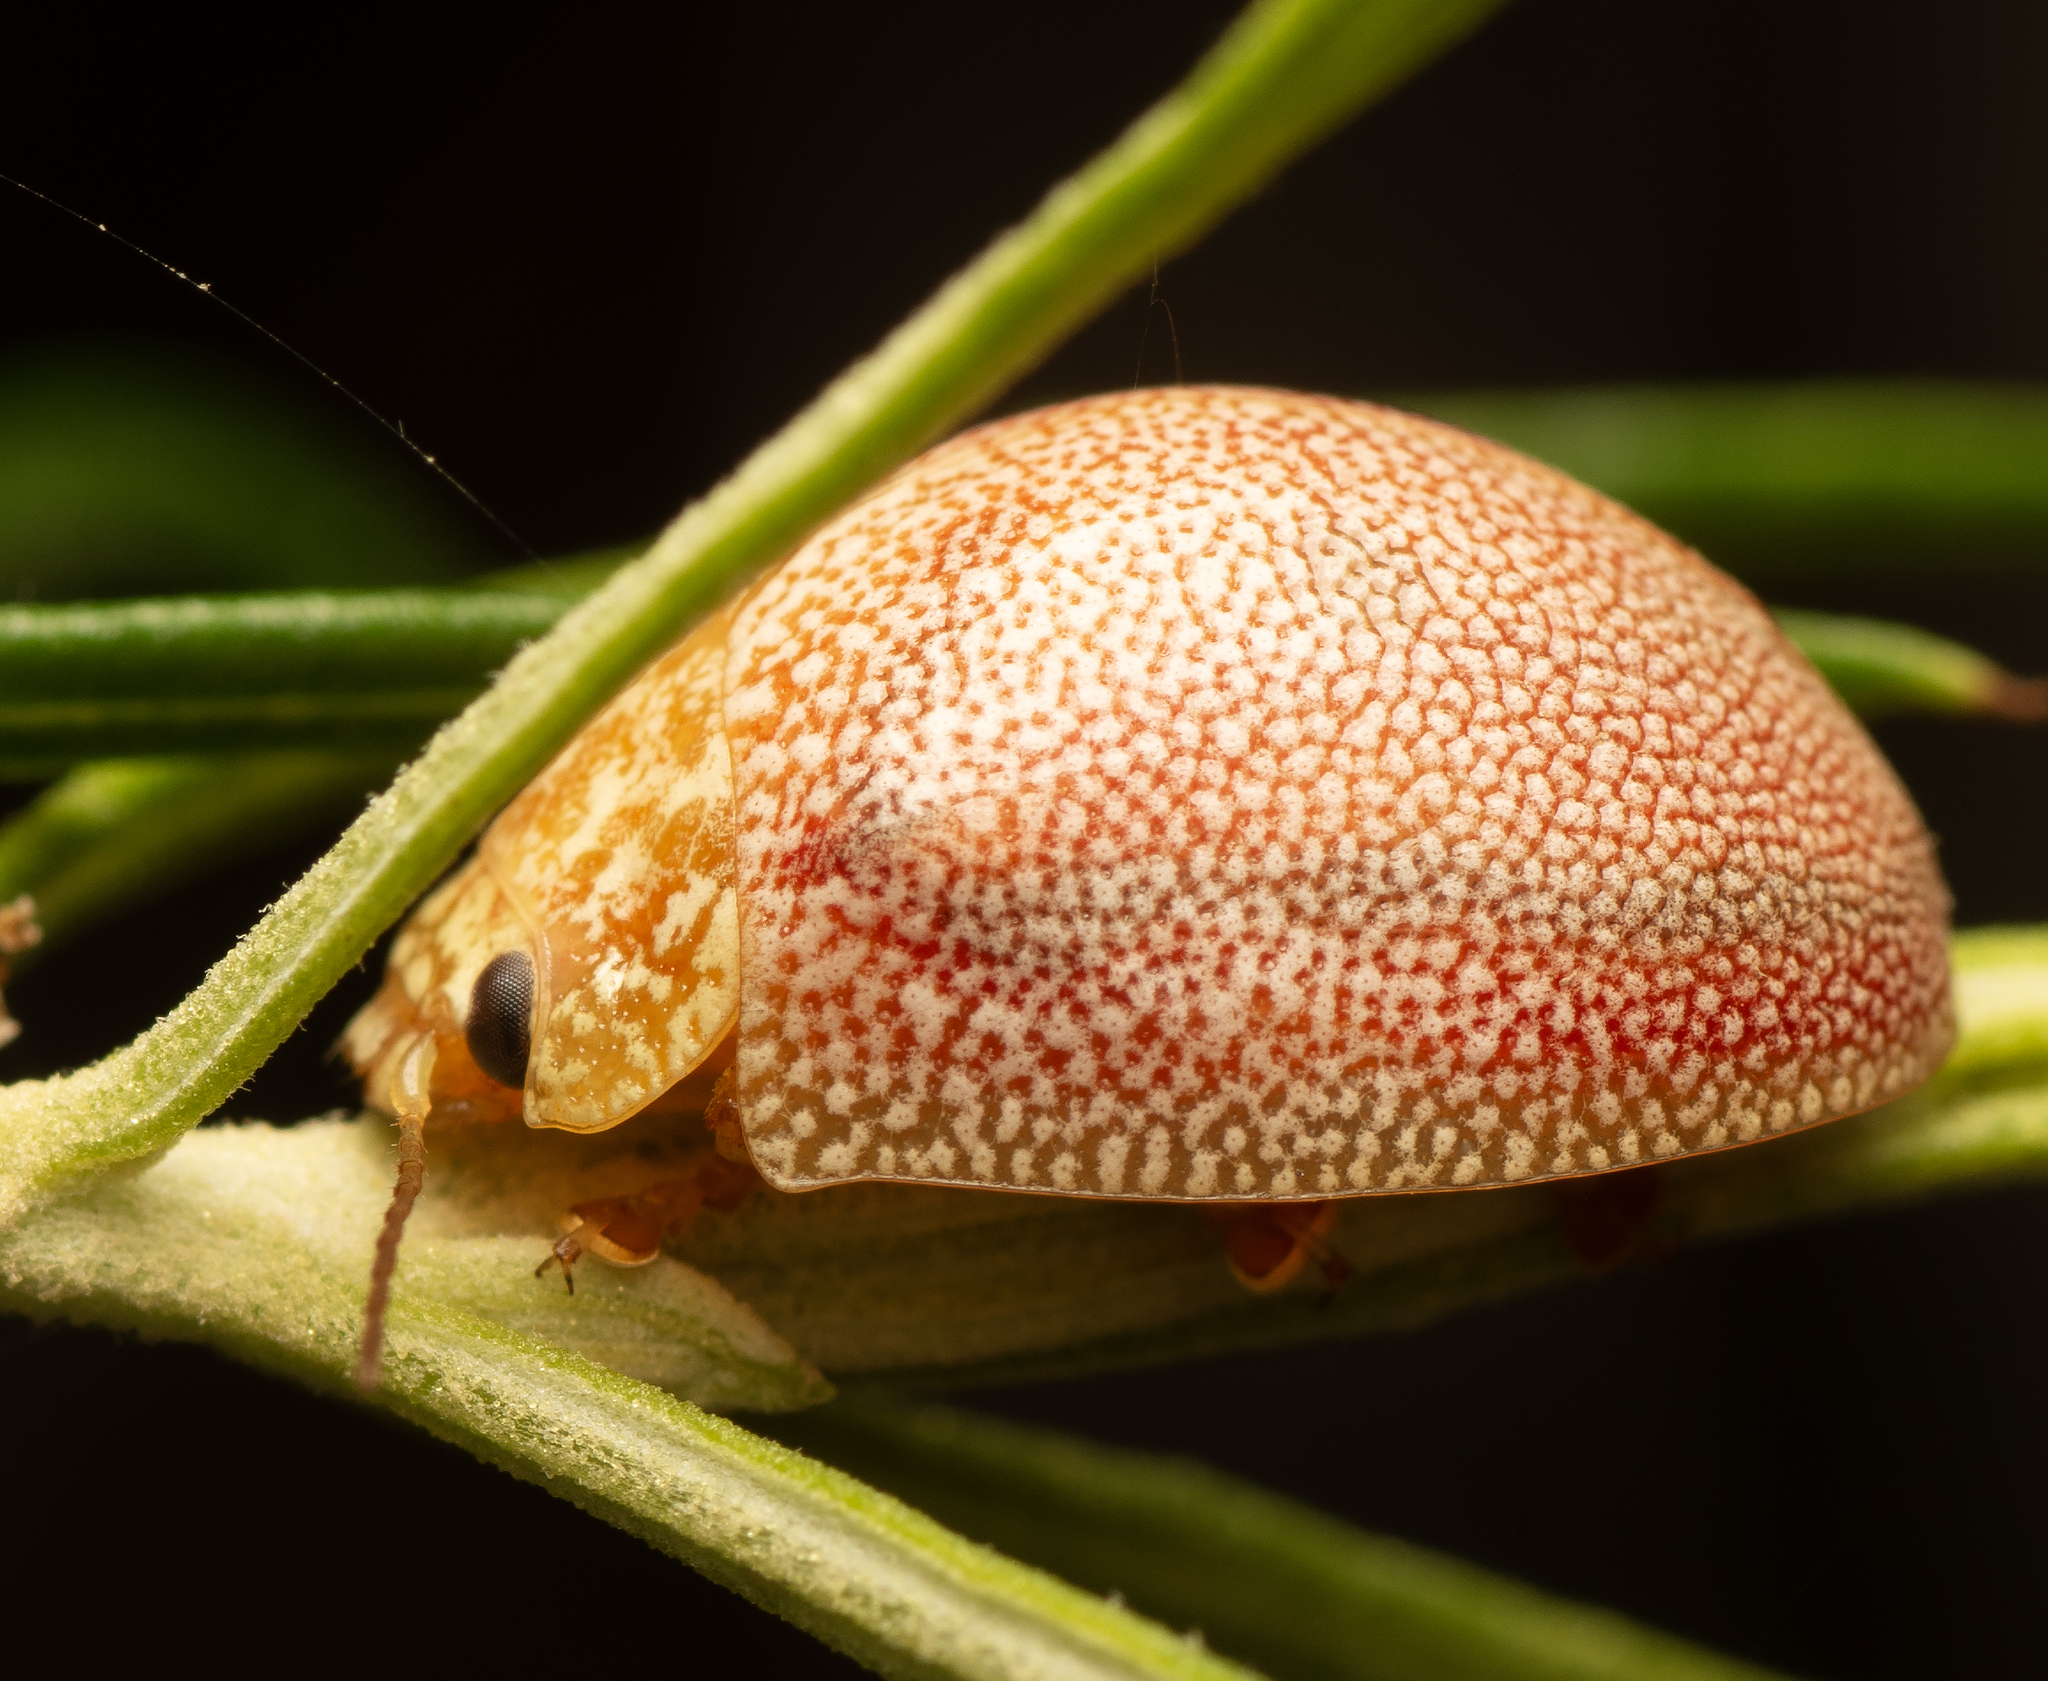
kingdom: Animalia
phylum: Arthropoda
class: Insecta
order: Coleoptera
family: Chrysomelidae
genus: Paropsis
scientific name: Paropsis
